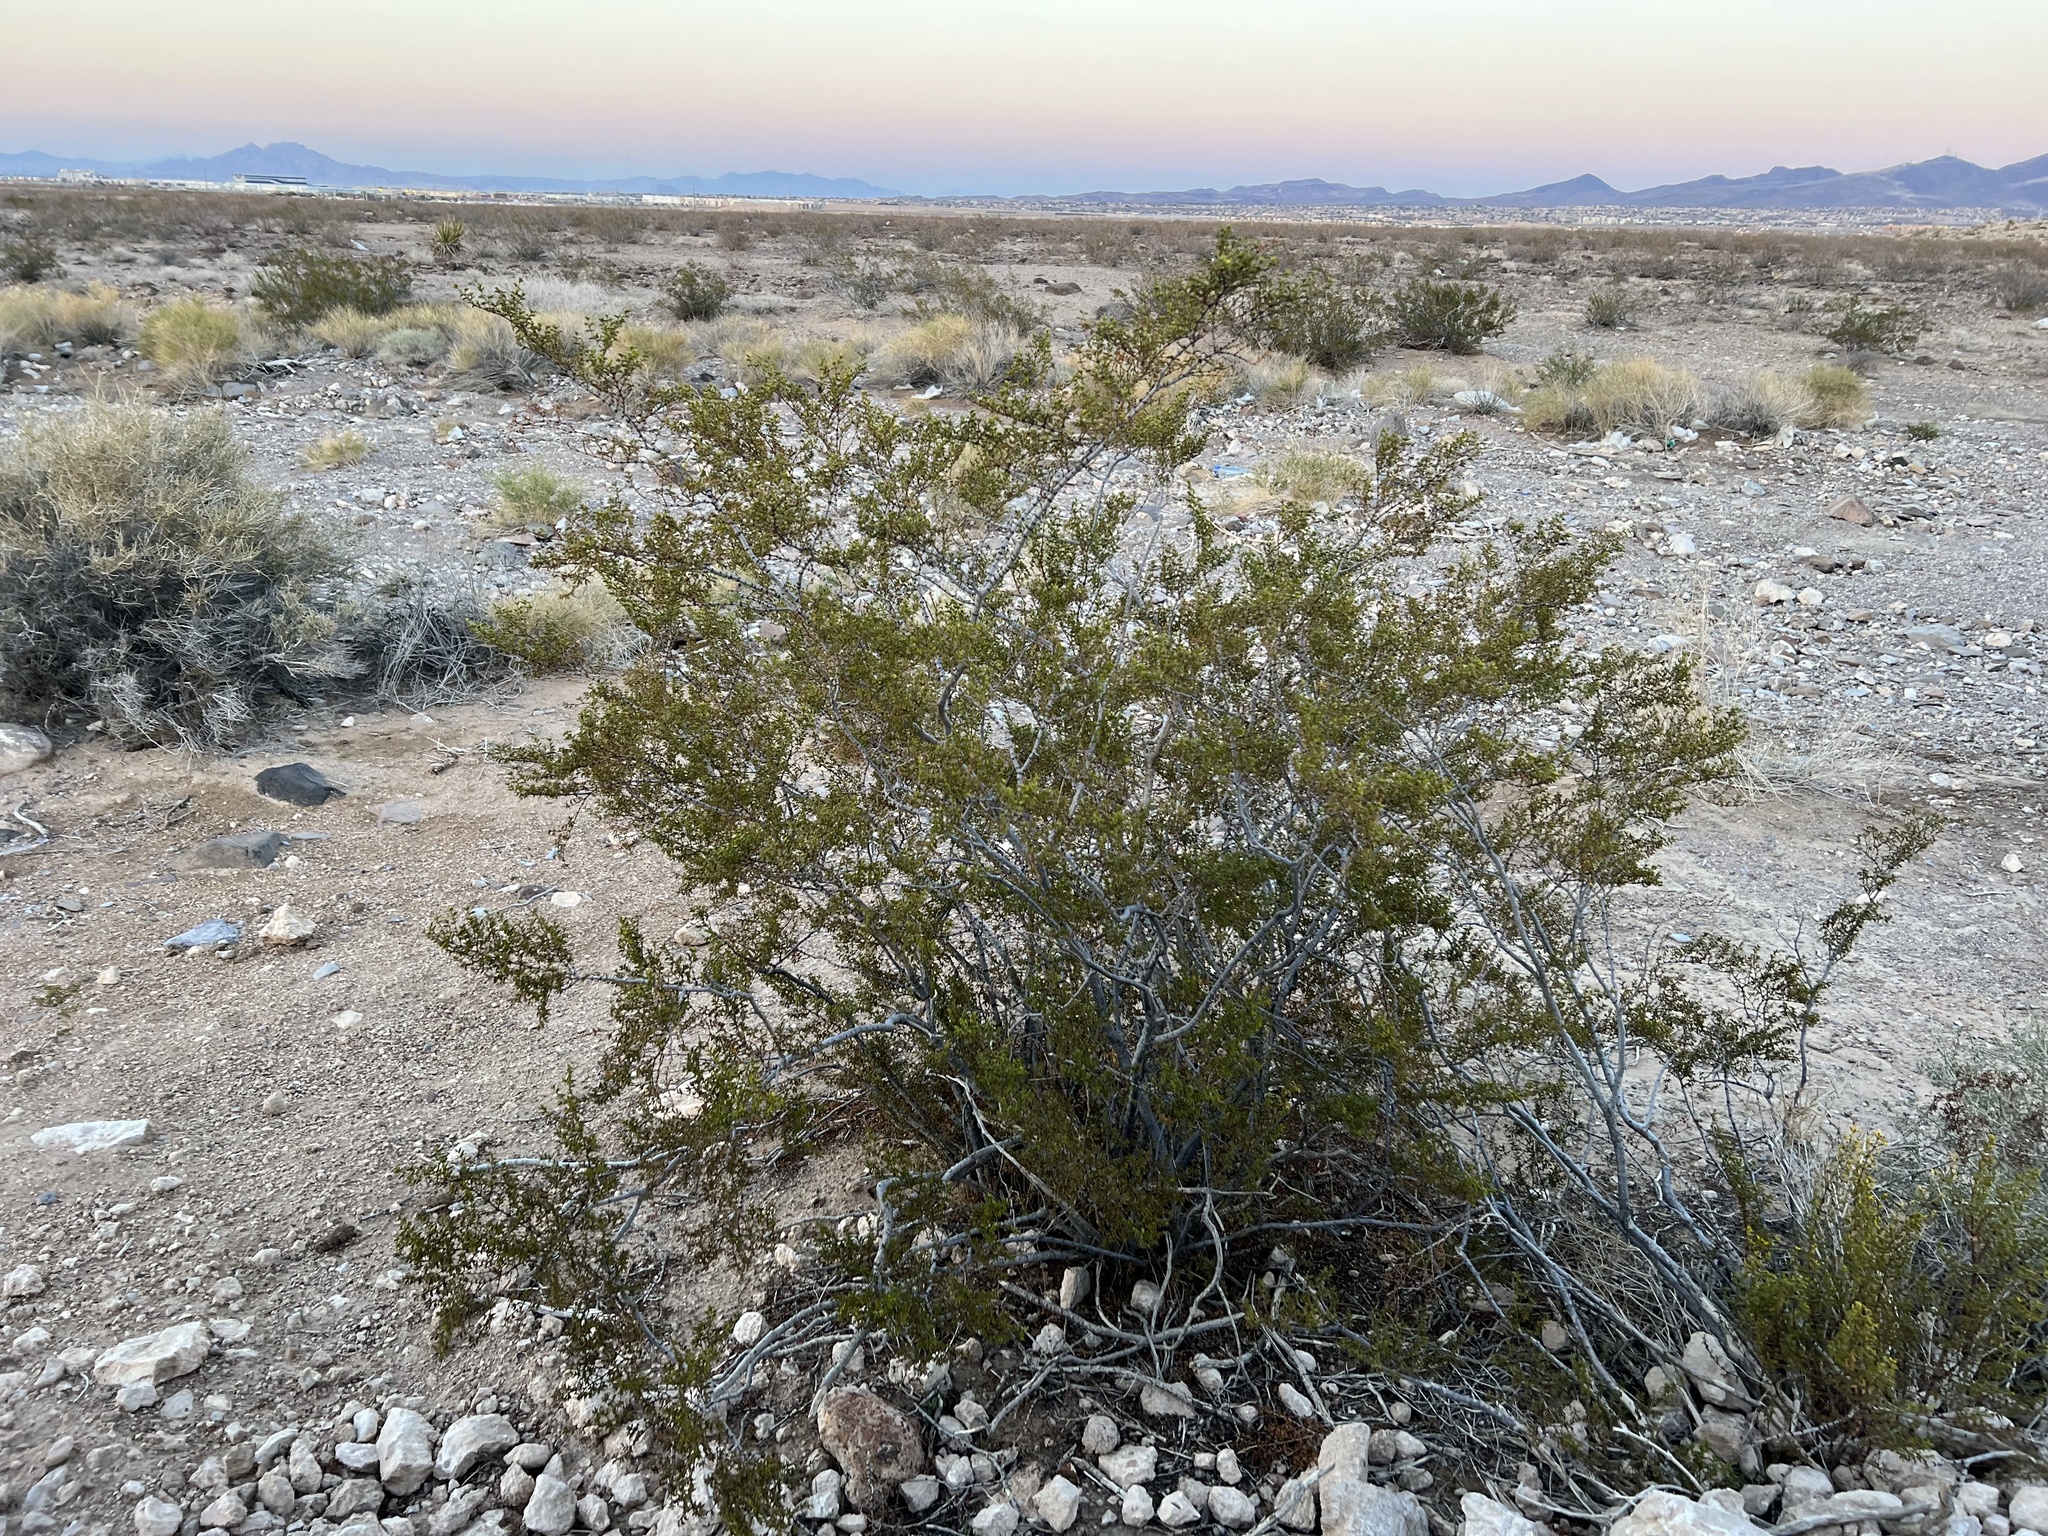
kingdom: Plantae
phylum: Tracheophyta
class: Magnoliopsida
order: Zygophyllales
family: Zygophyllaceae
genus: Larrea
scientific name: Larrea tridentata
